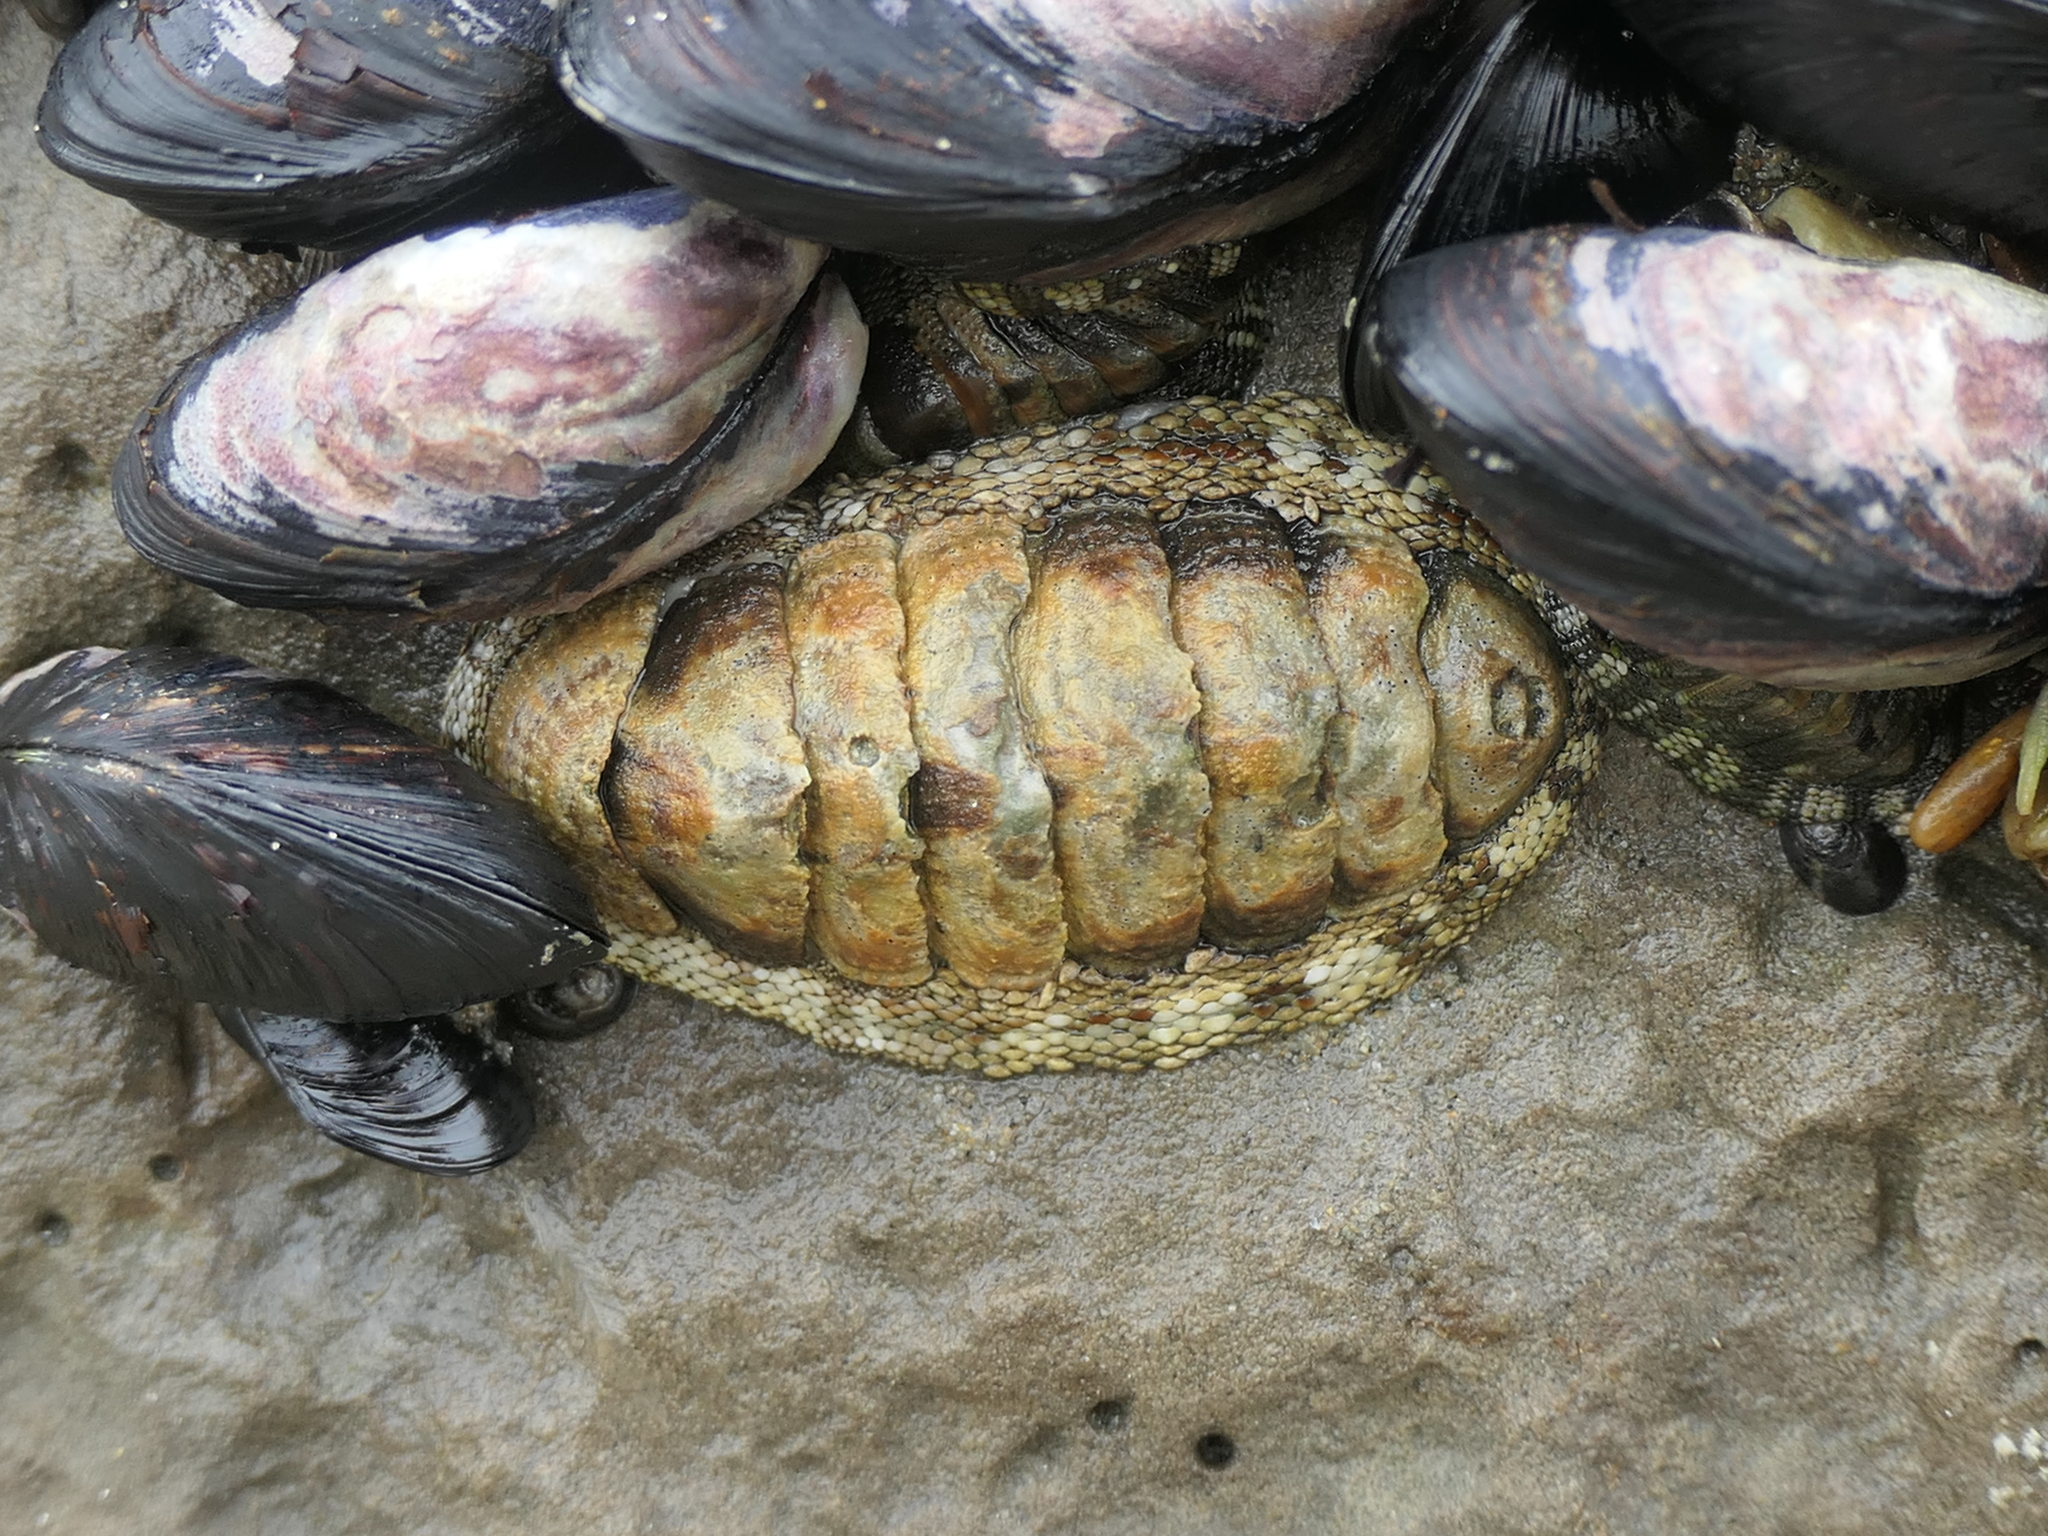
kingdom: Animalia
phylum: Mollusca
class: Polyplacophora
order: Chitonida
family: Chitonidae
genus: Sypharochiton
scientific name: Sypharochiton pelliserpentis
